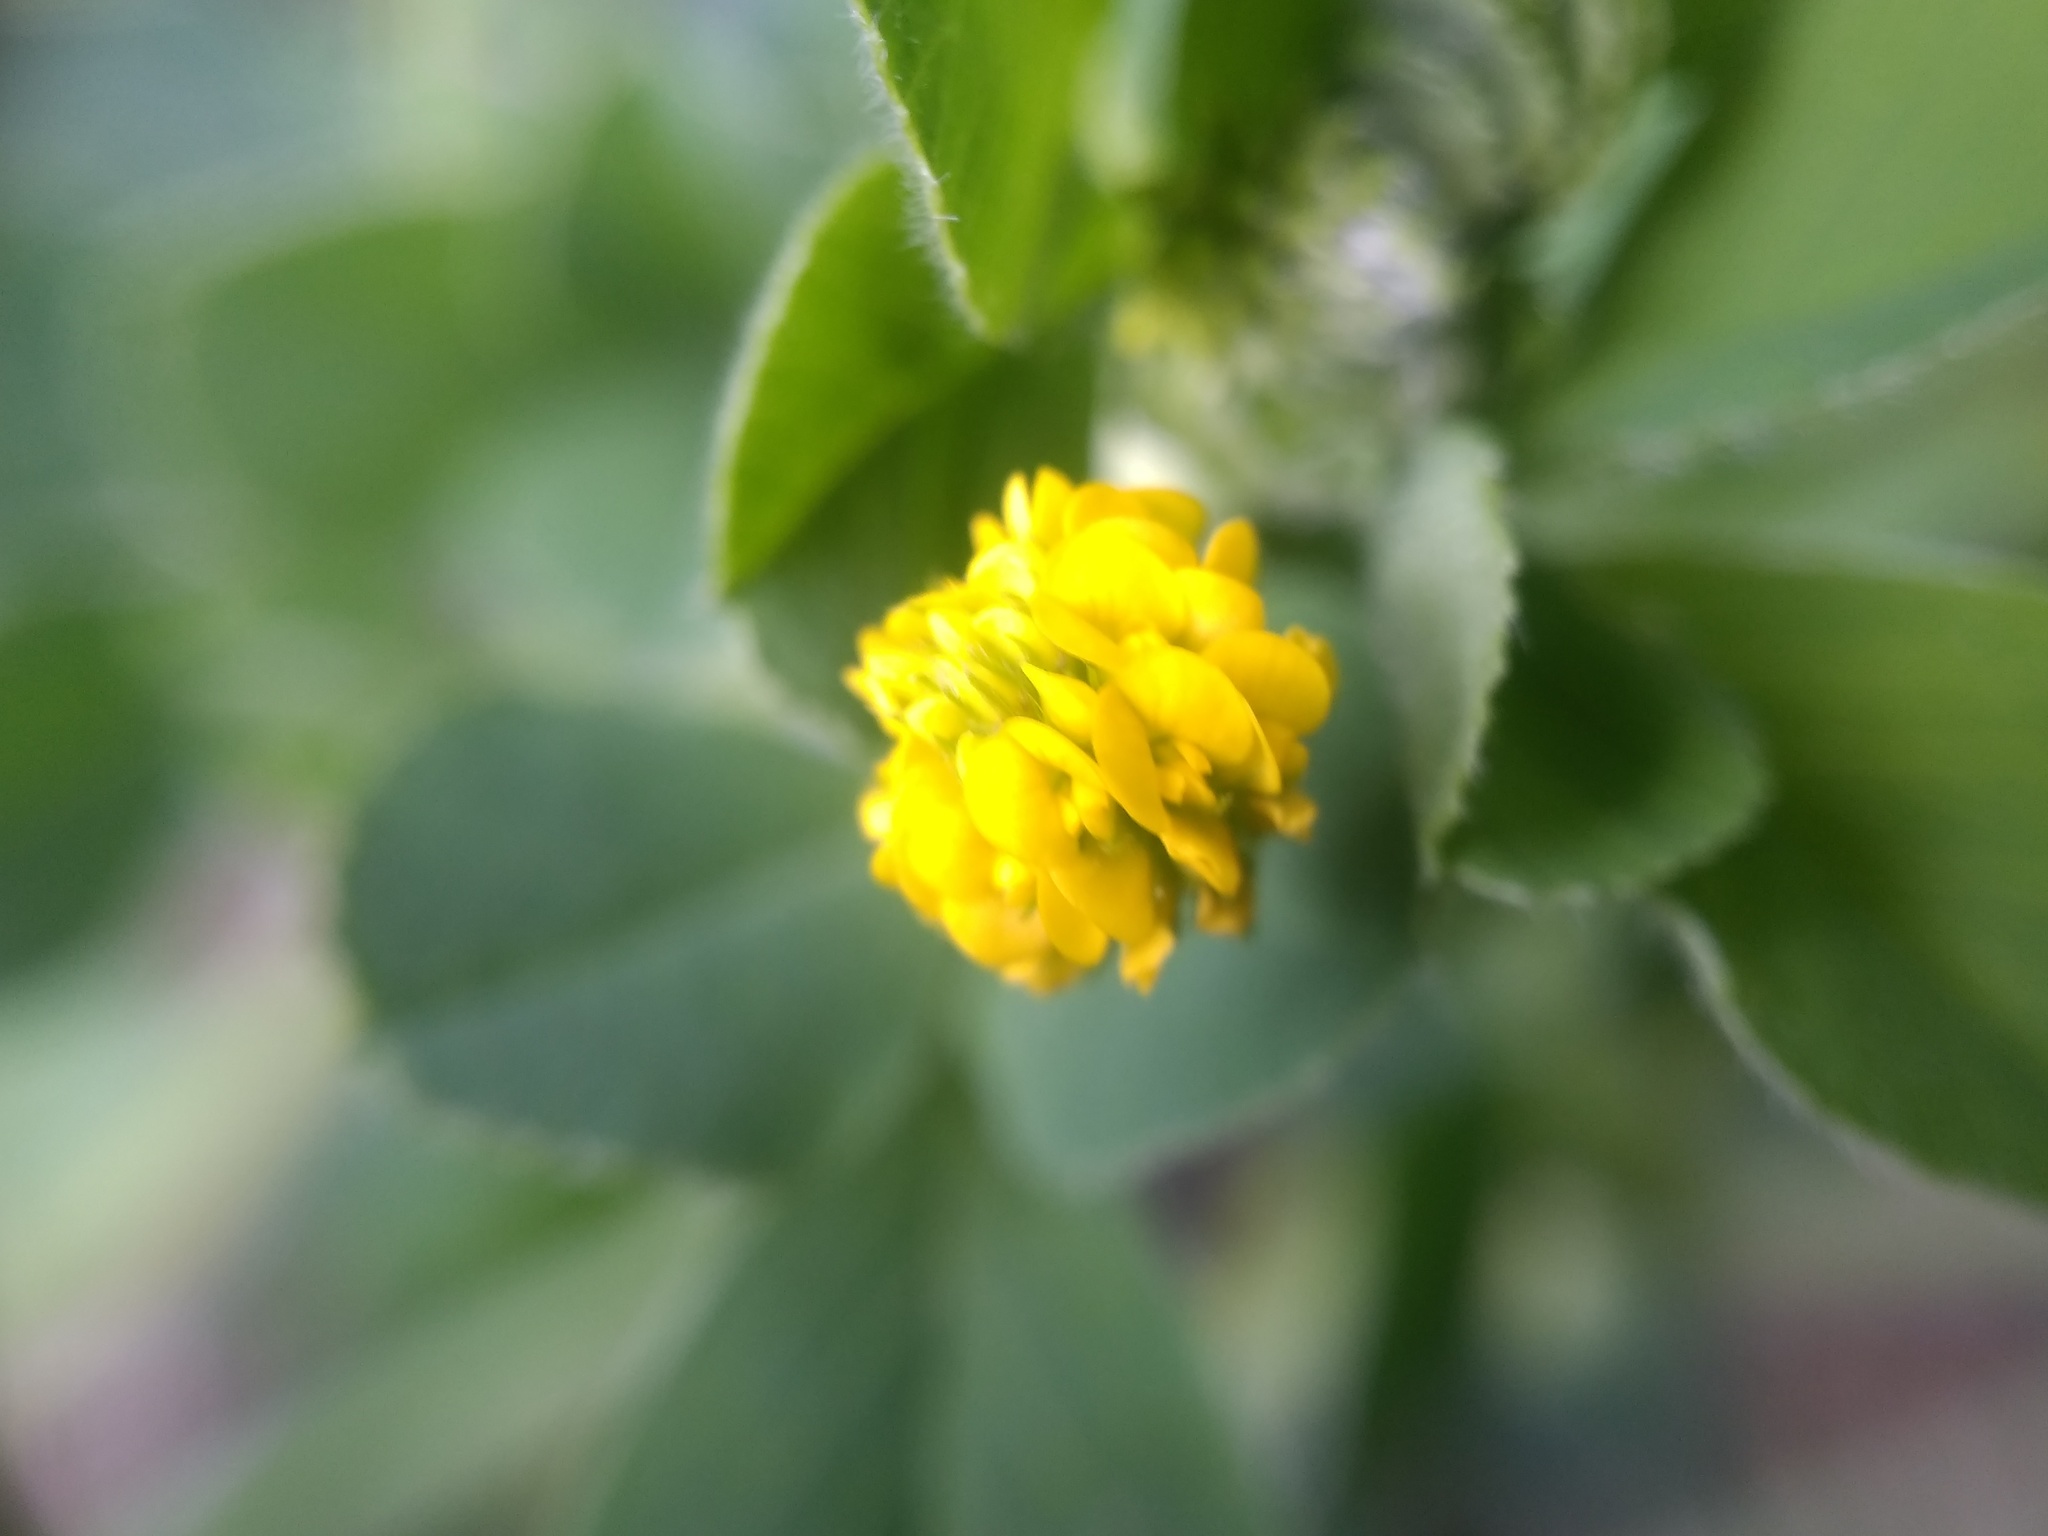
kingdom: Plantae
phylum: Tracheophyta
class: Magnoliopsida
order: Fabales
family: Fabaceae
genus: Medicago
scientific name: Medicago lupulina
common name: Black medick
